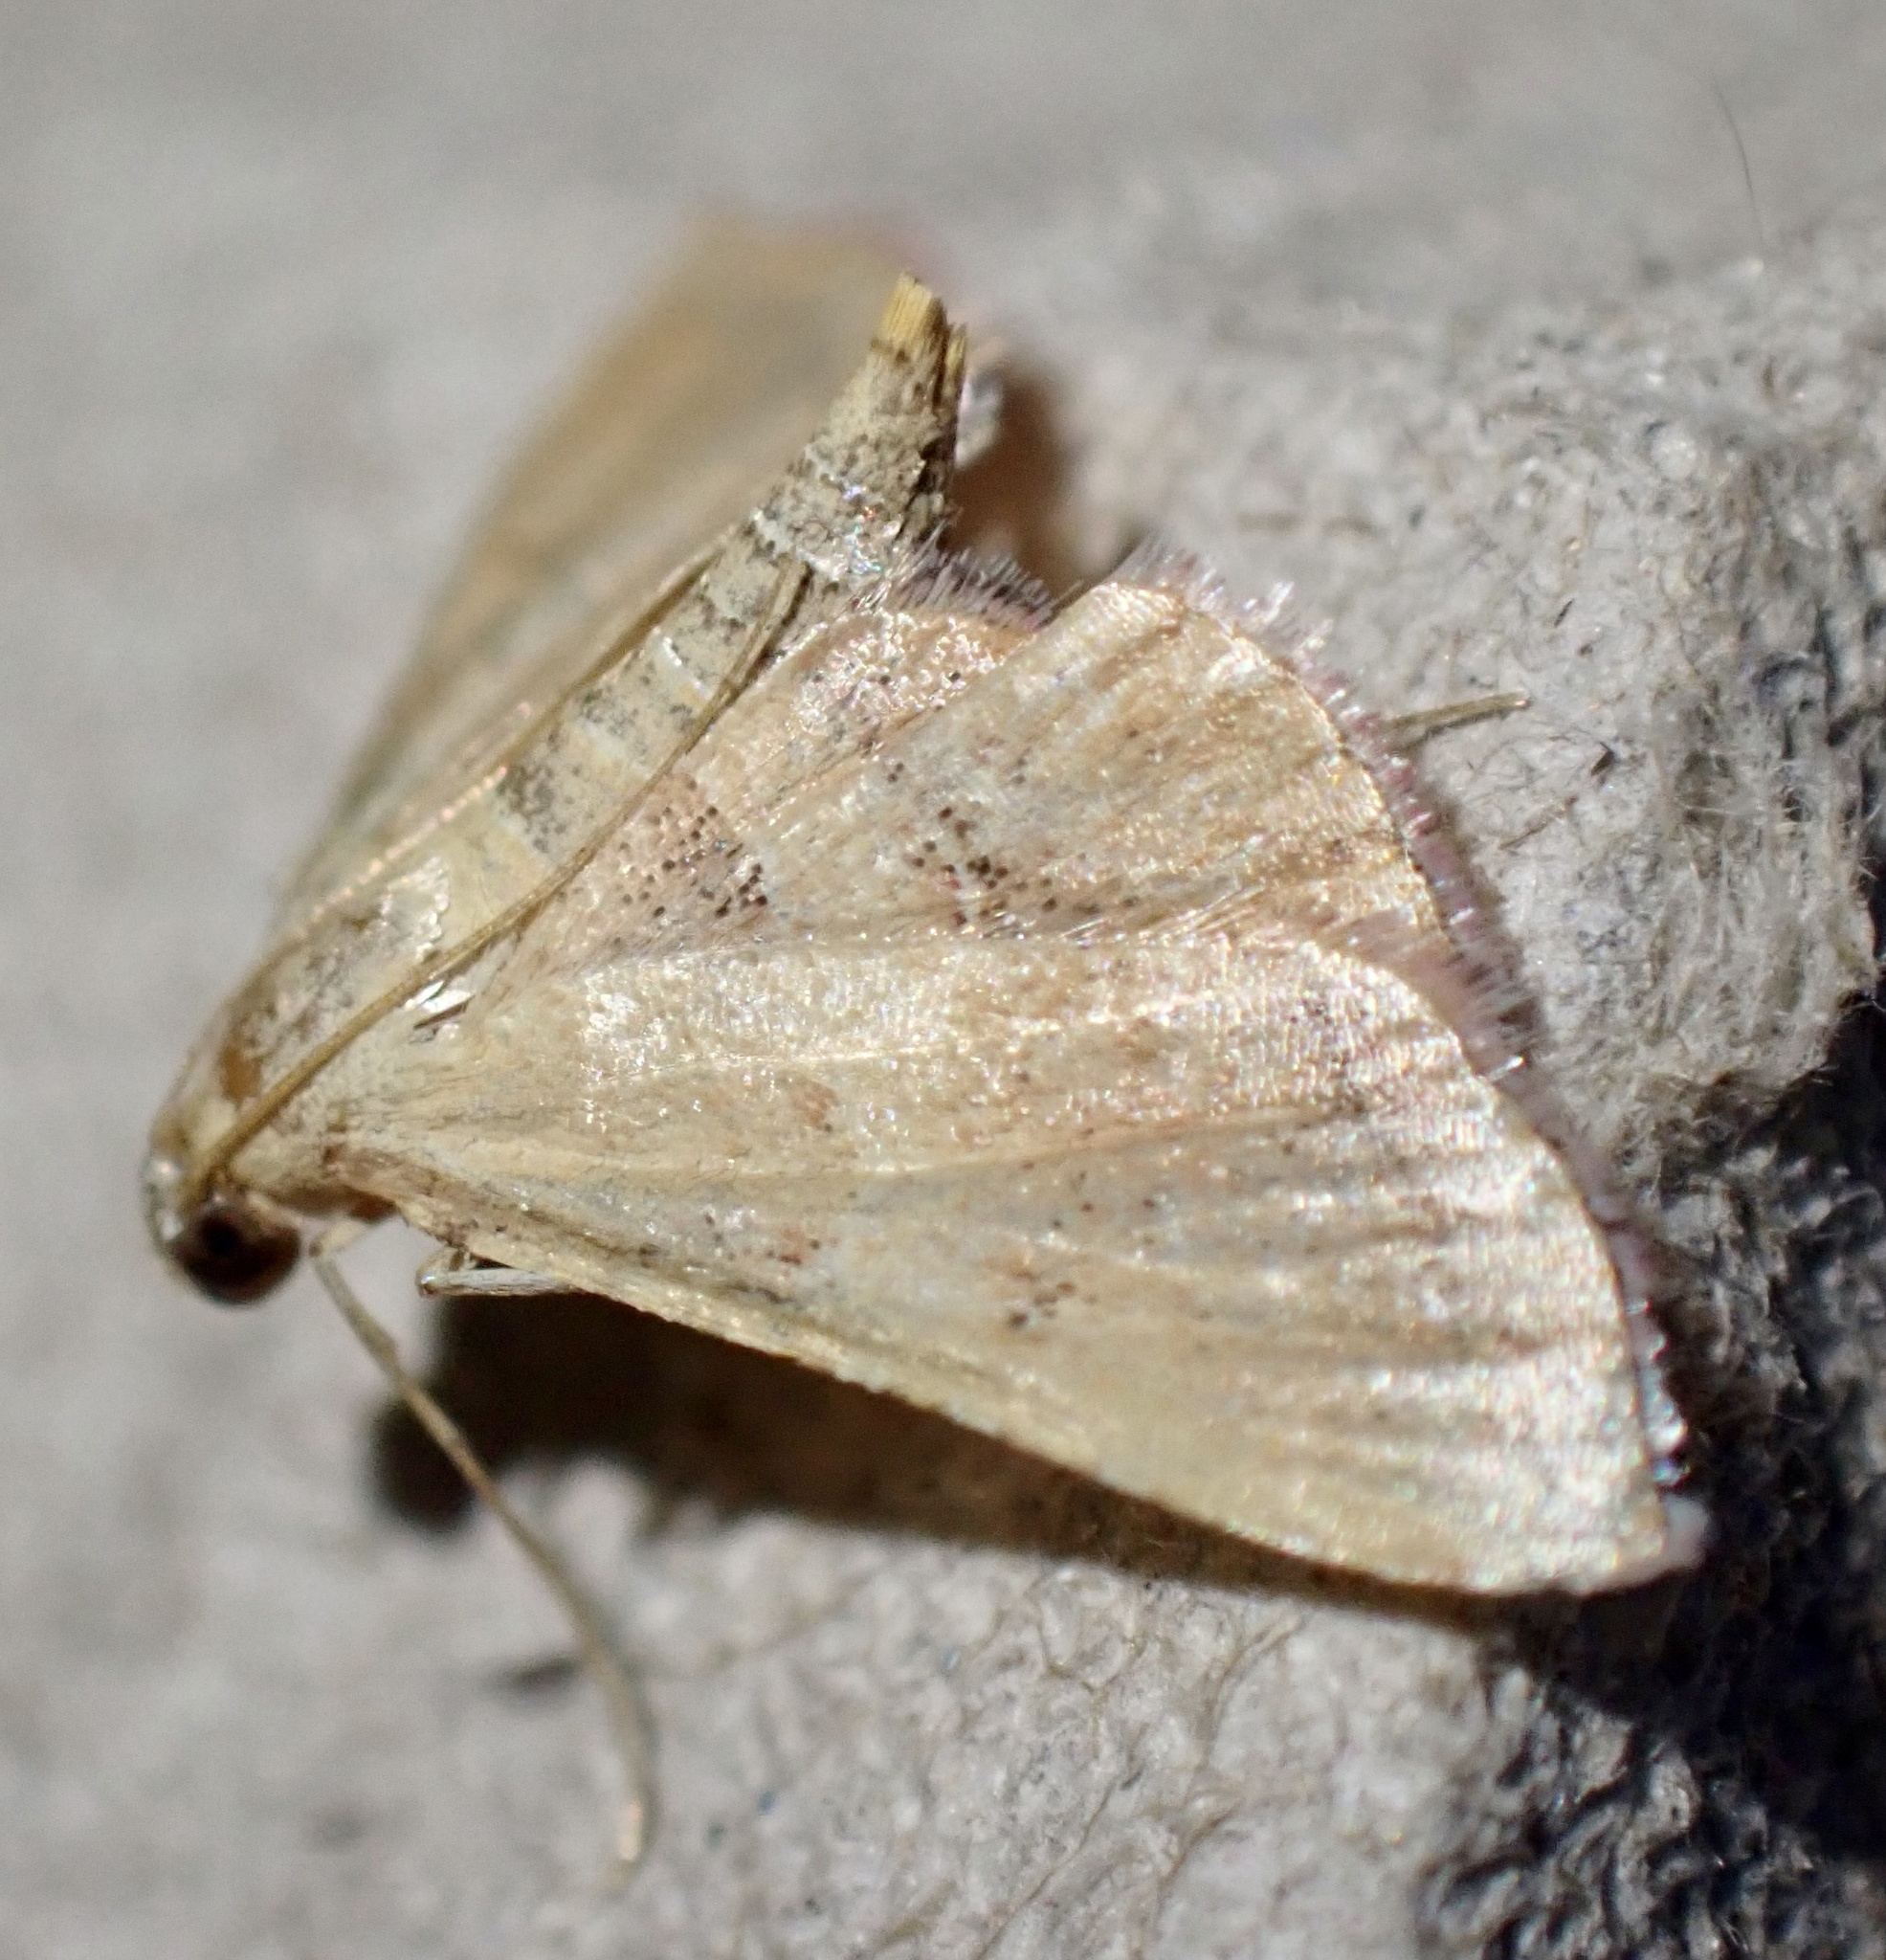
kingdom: Animalia
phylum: Arthropoda
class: Insecta
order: Lepidoptera
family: Pyralidae
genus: Endotricha
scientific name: Endotricha flammealis
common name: Rosy tabby
